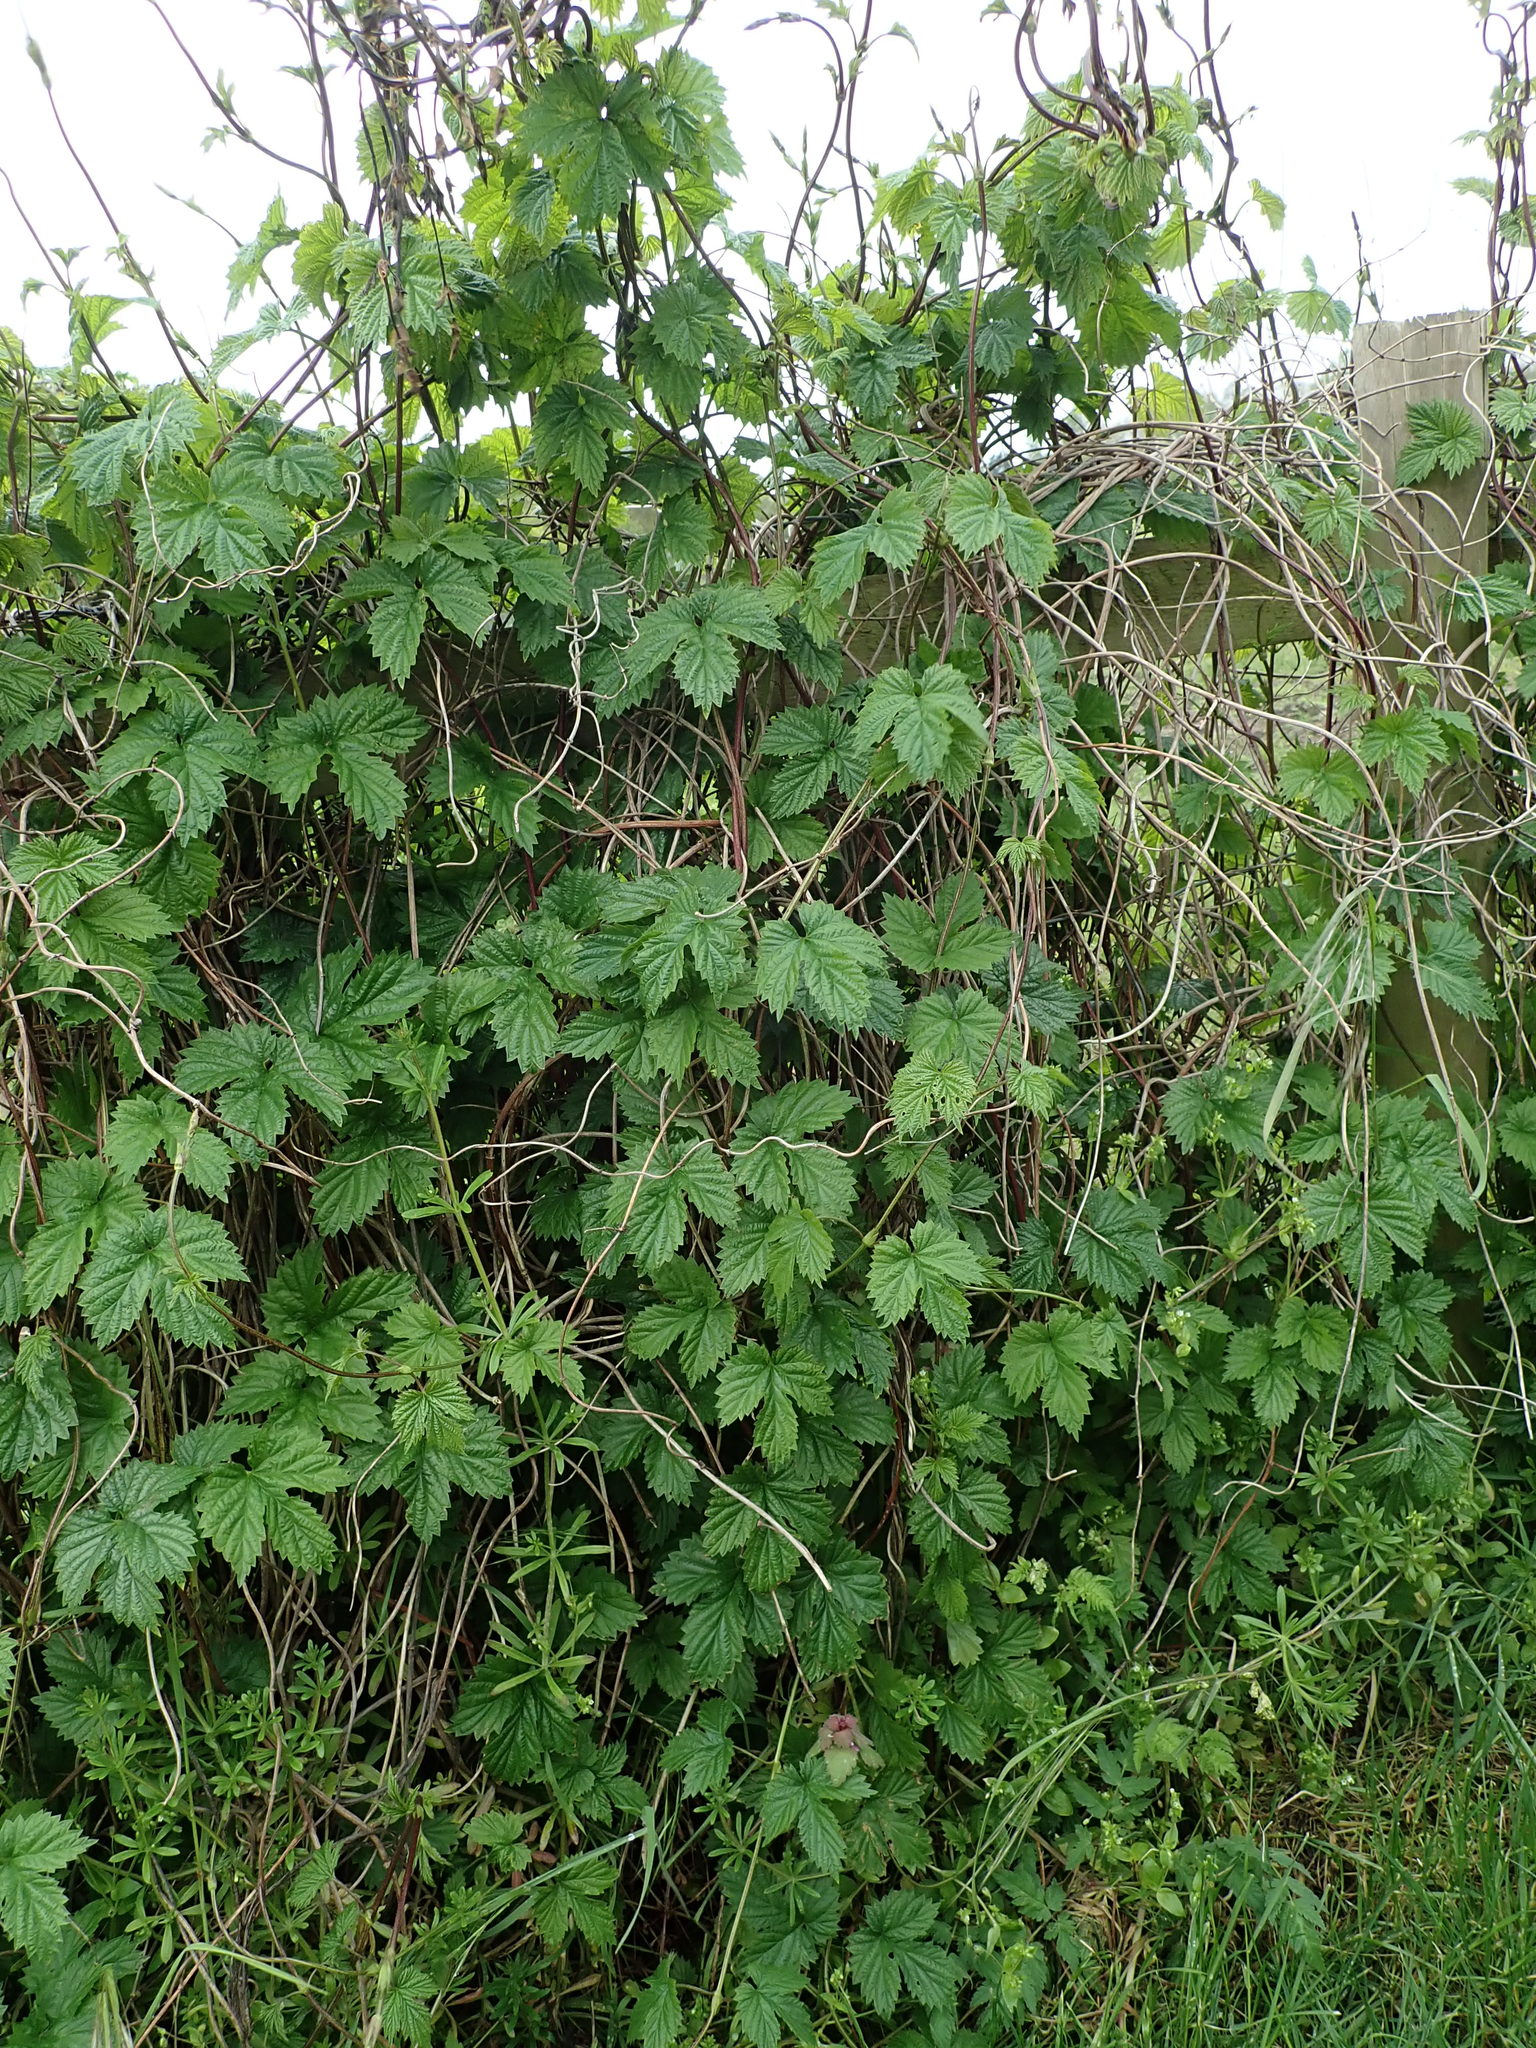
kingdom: Plantae
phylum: Tracheophyta
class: Magnoliopsida
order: Rosales
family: Cannabaceae
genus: Humulus
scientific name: Humulus lupulus
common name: Hop
